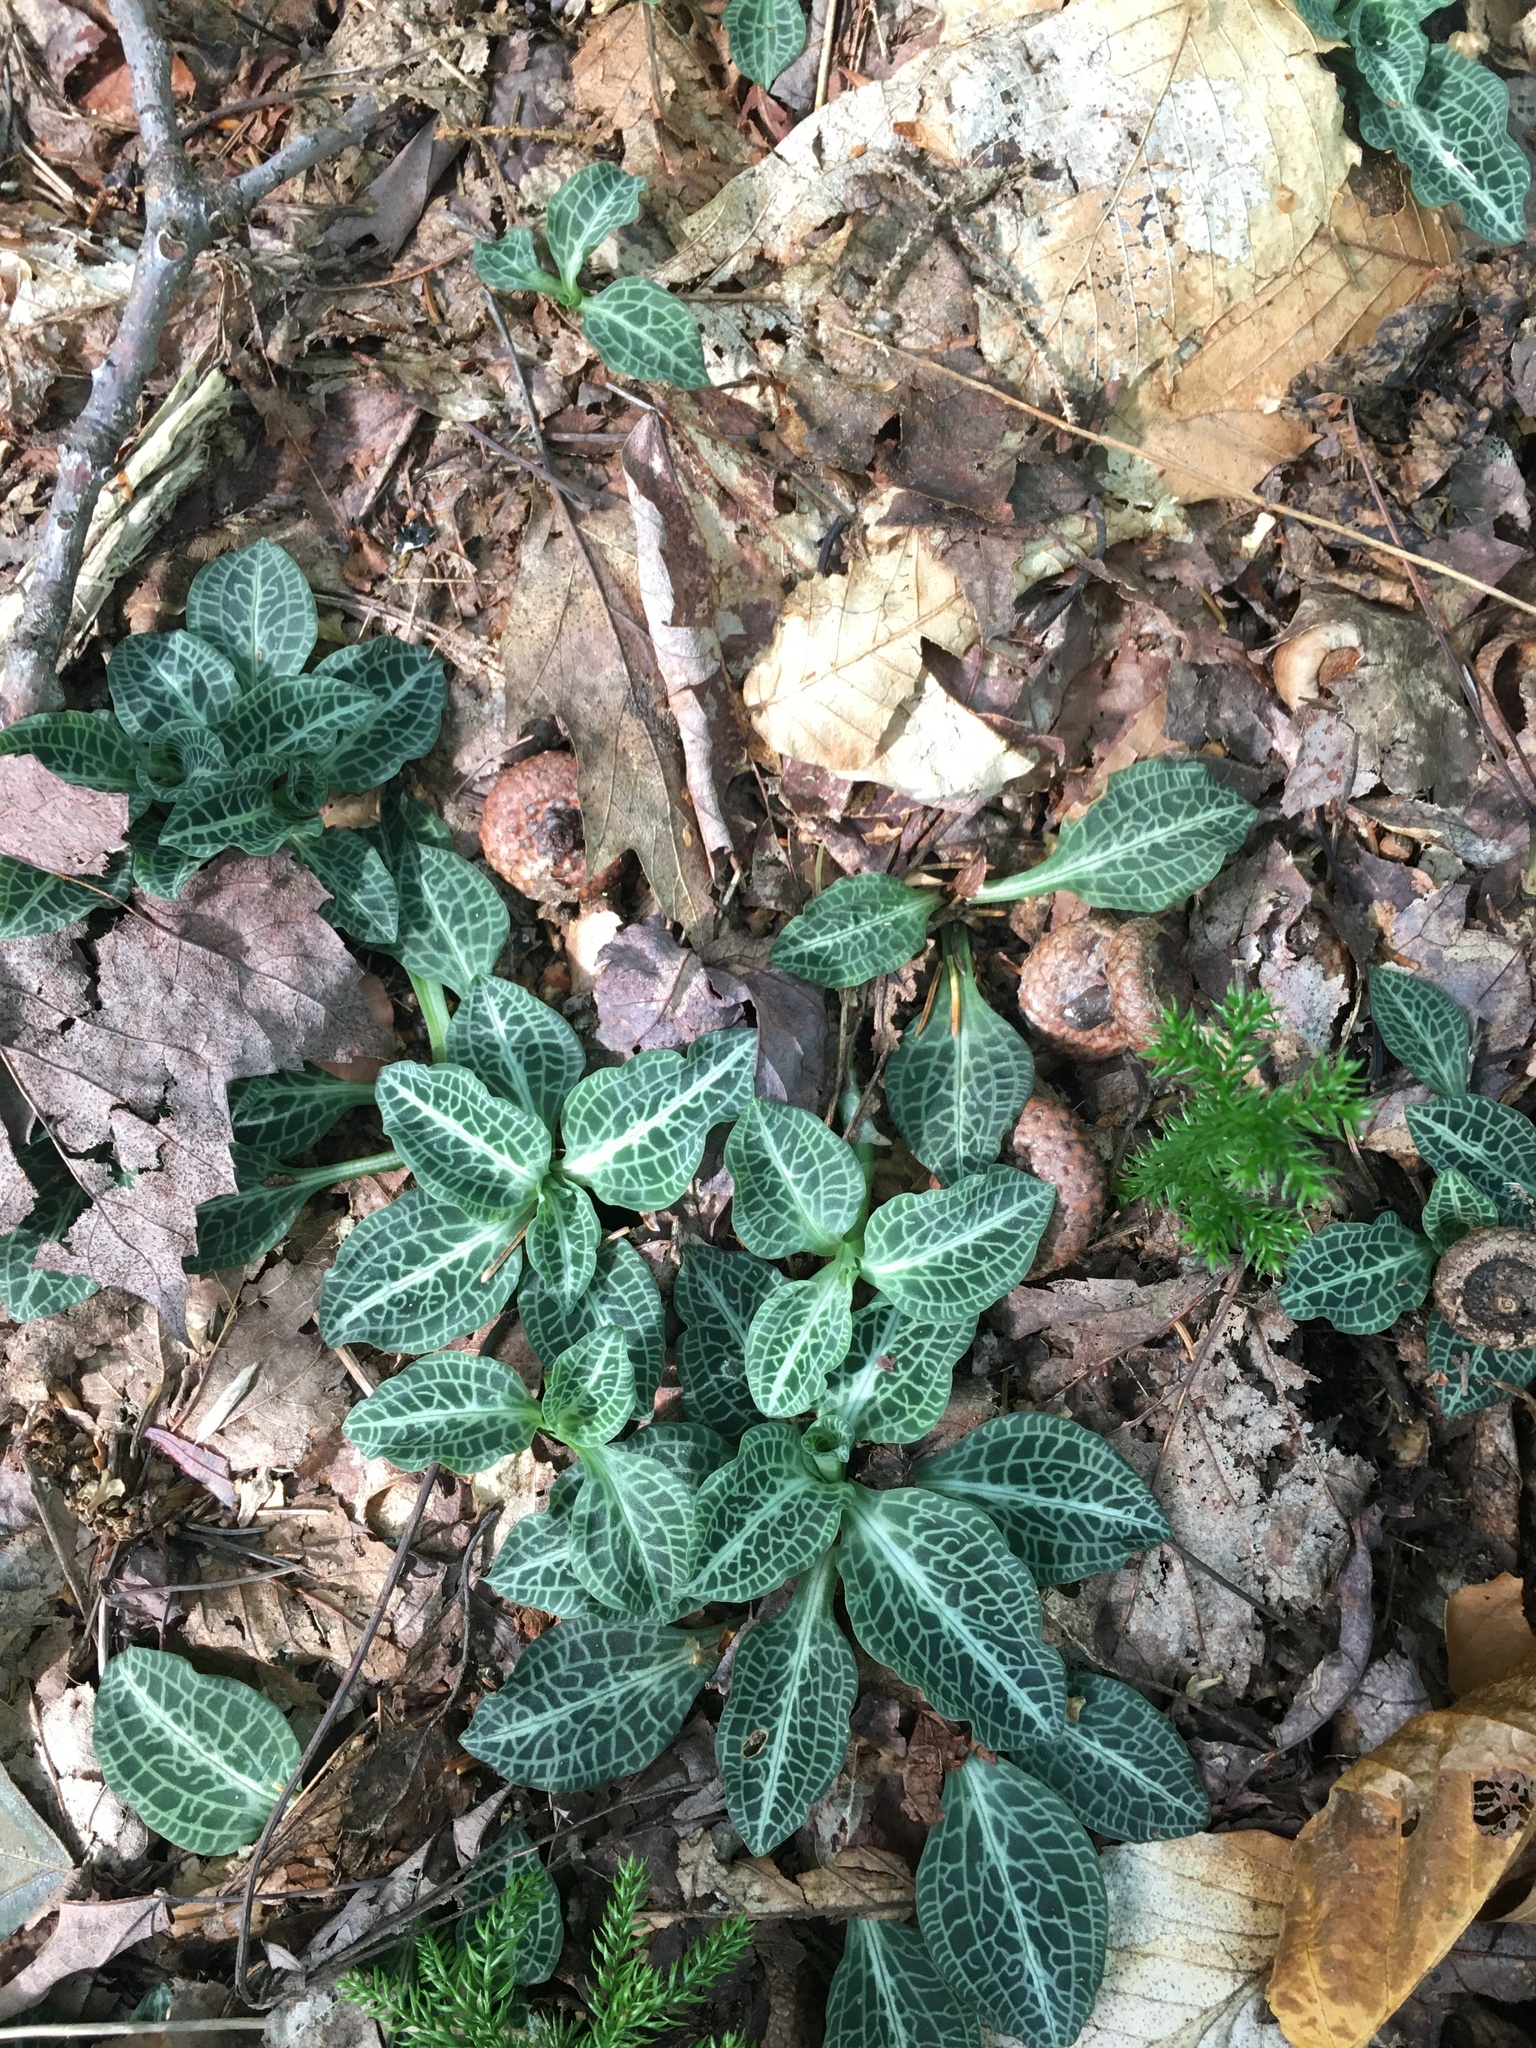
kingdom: Plantae
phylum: Tracheophyta
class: Liliopsida
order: Asparagales
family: Orchidaceae
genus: Goodyera
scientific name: Goodyera pubescens
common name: Downy rattlesnake-plantain
